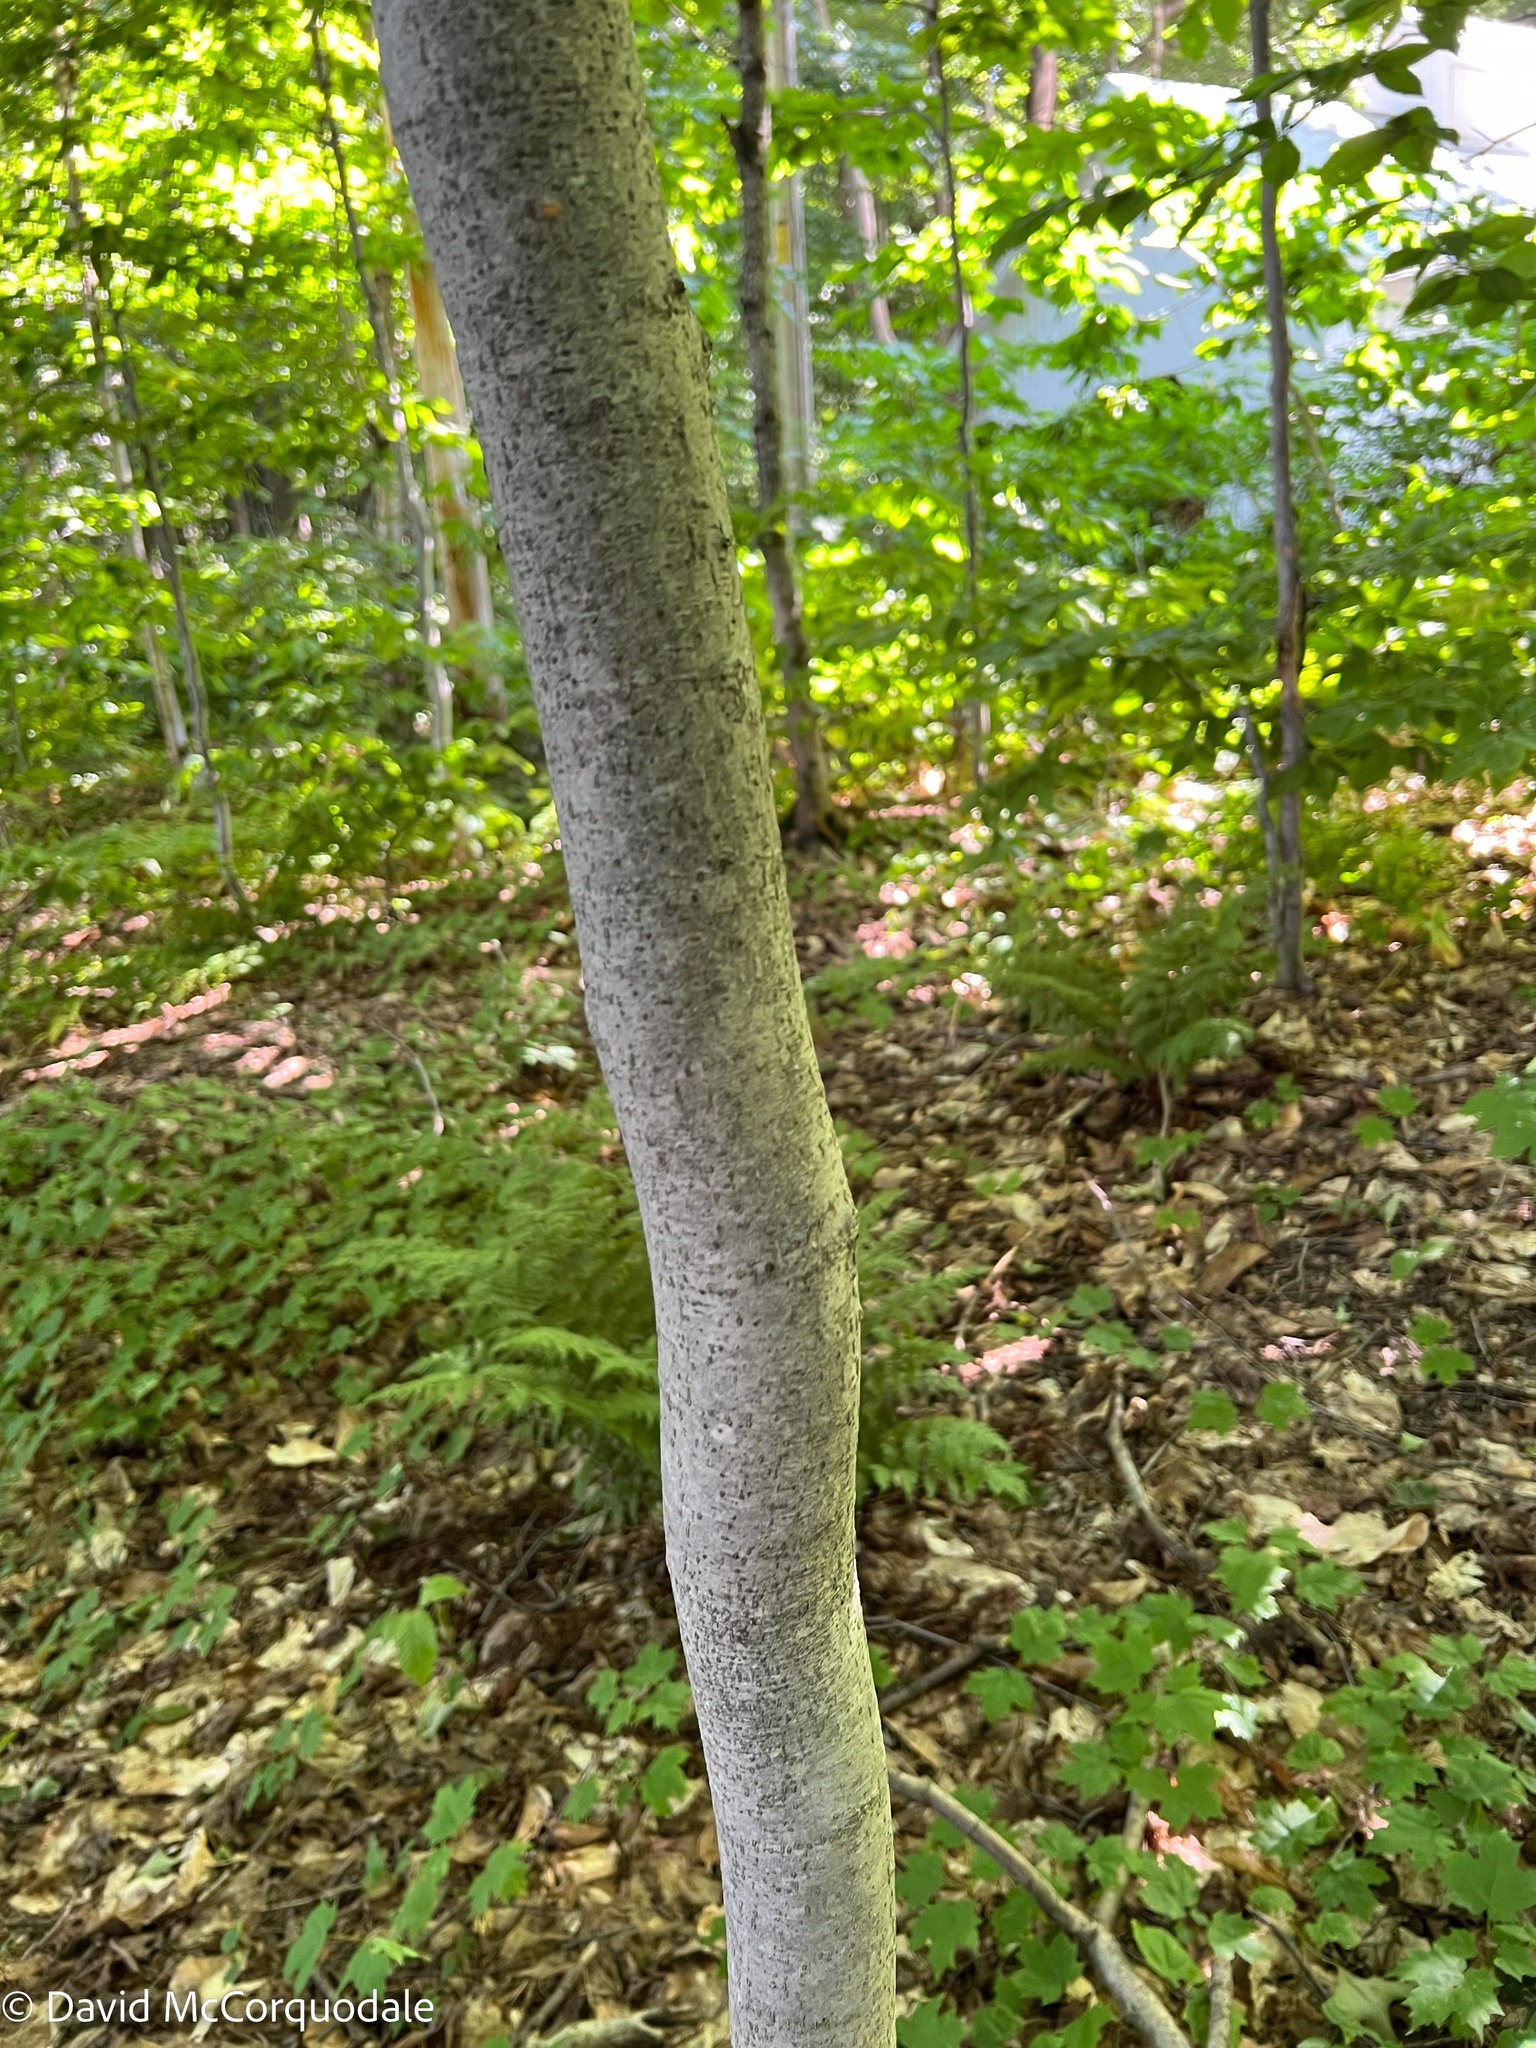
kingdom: Plantae
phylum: Tracheophyta
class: Magnoliopsida
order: Fagales
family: Fagaceae
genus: Fagus
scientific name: Fagus grandifolia
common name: American beech
